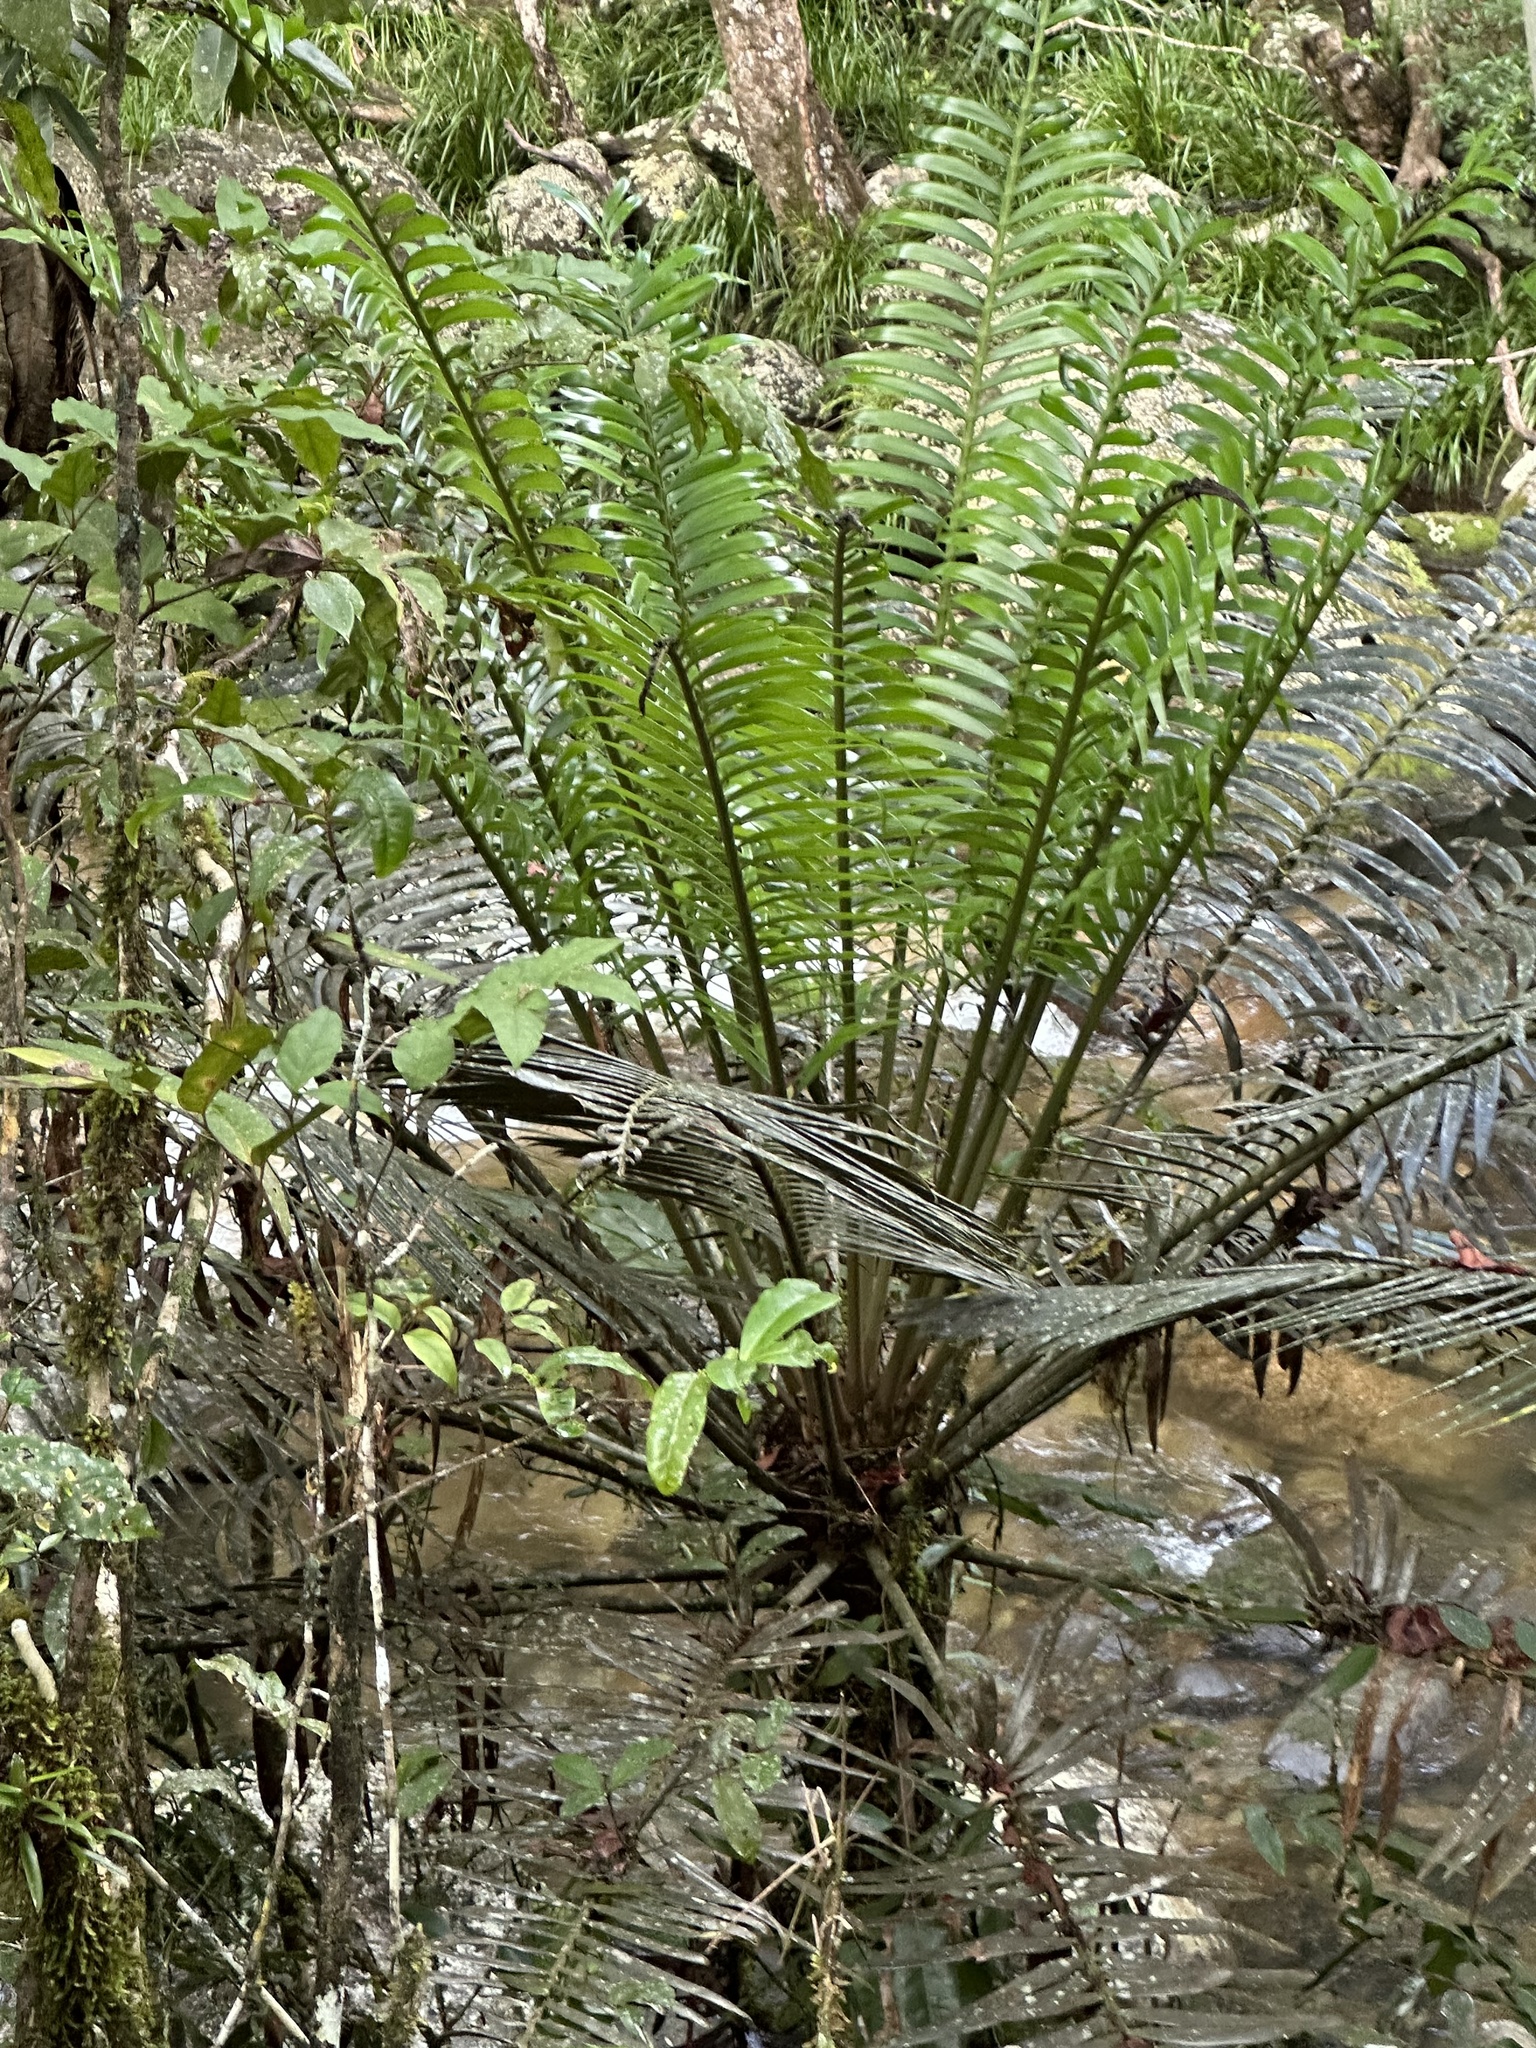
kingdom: Plantae
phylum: Tracheophyta
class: Cycadopsida
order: Cycadales
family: Zamiaceae
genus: Lepidozamia
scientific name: Lepidozamia hopei
